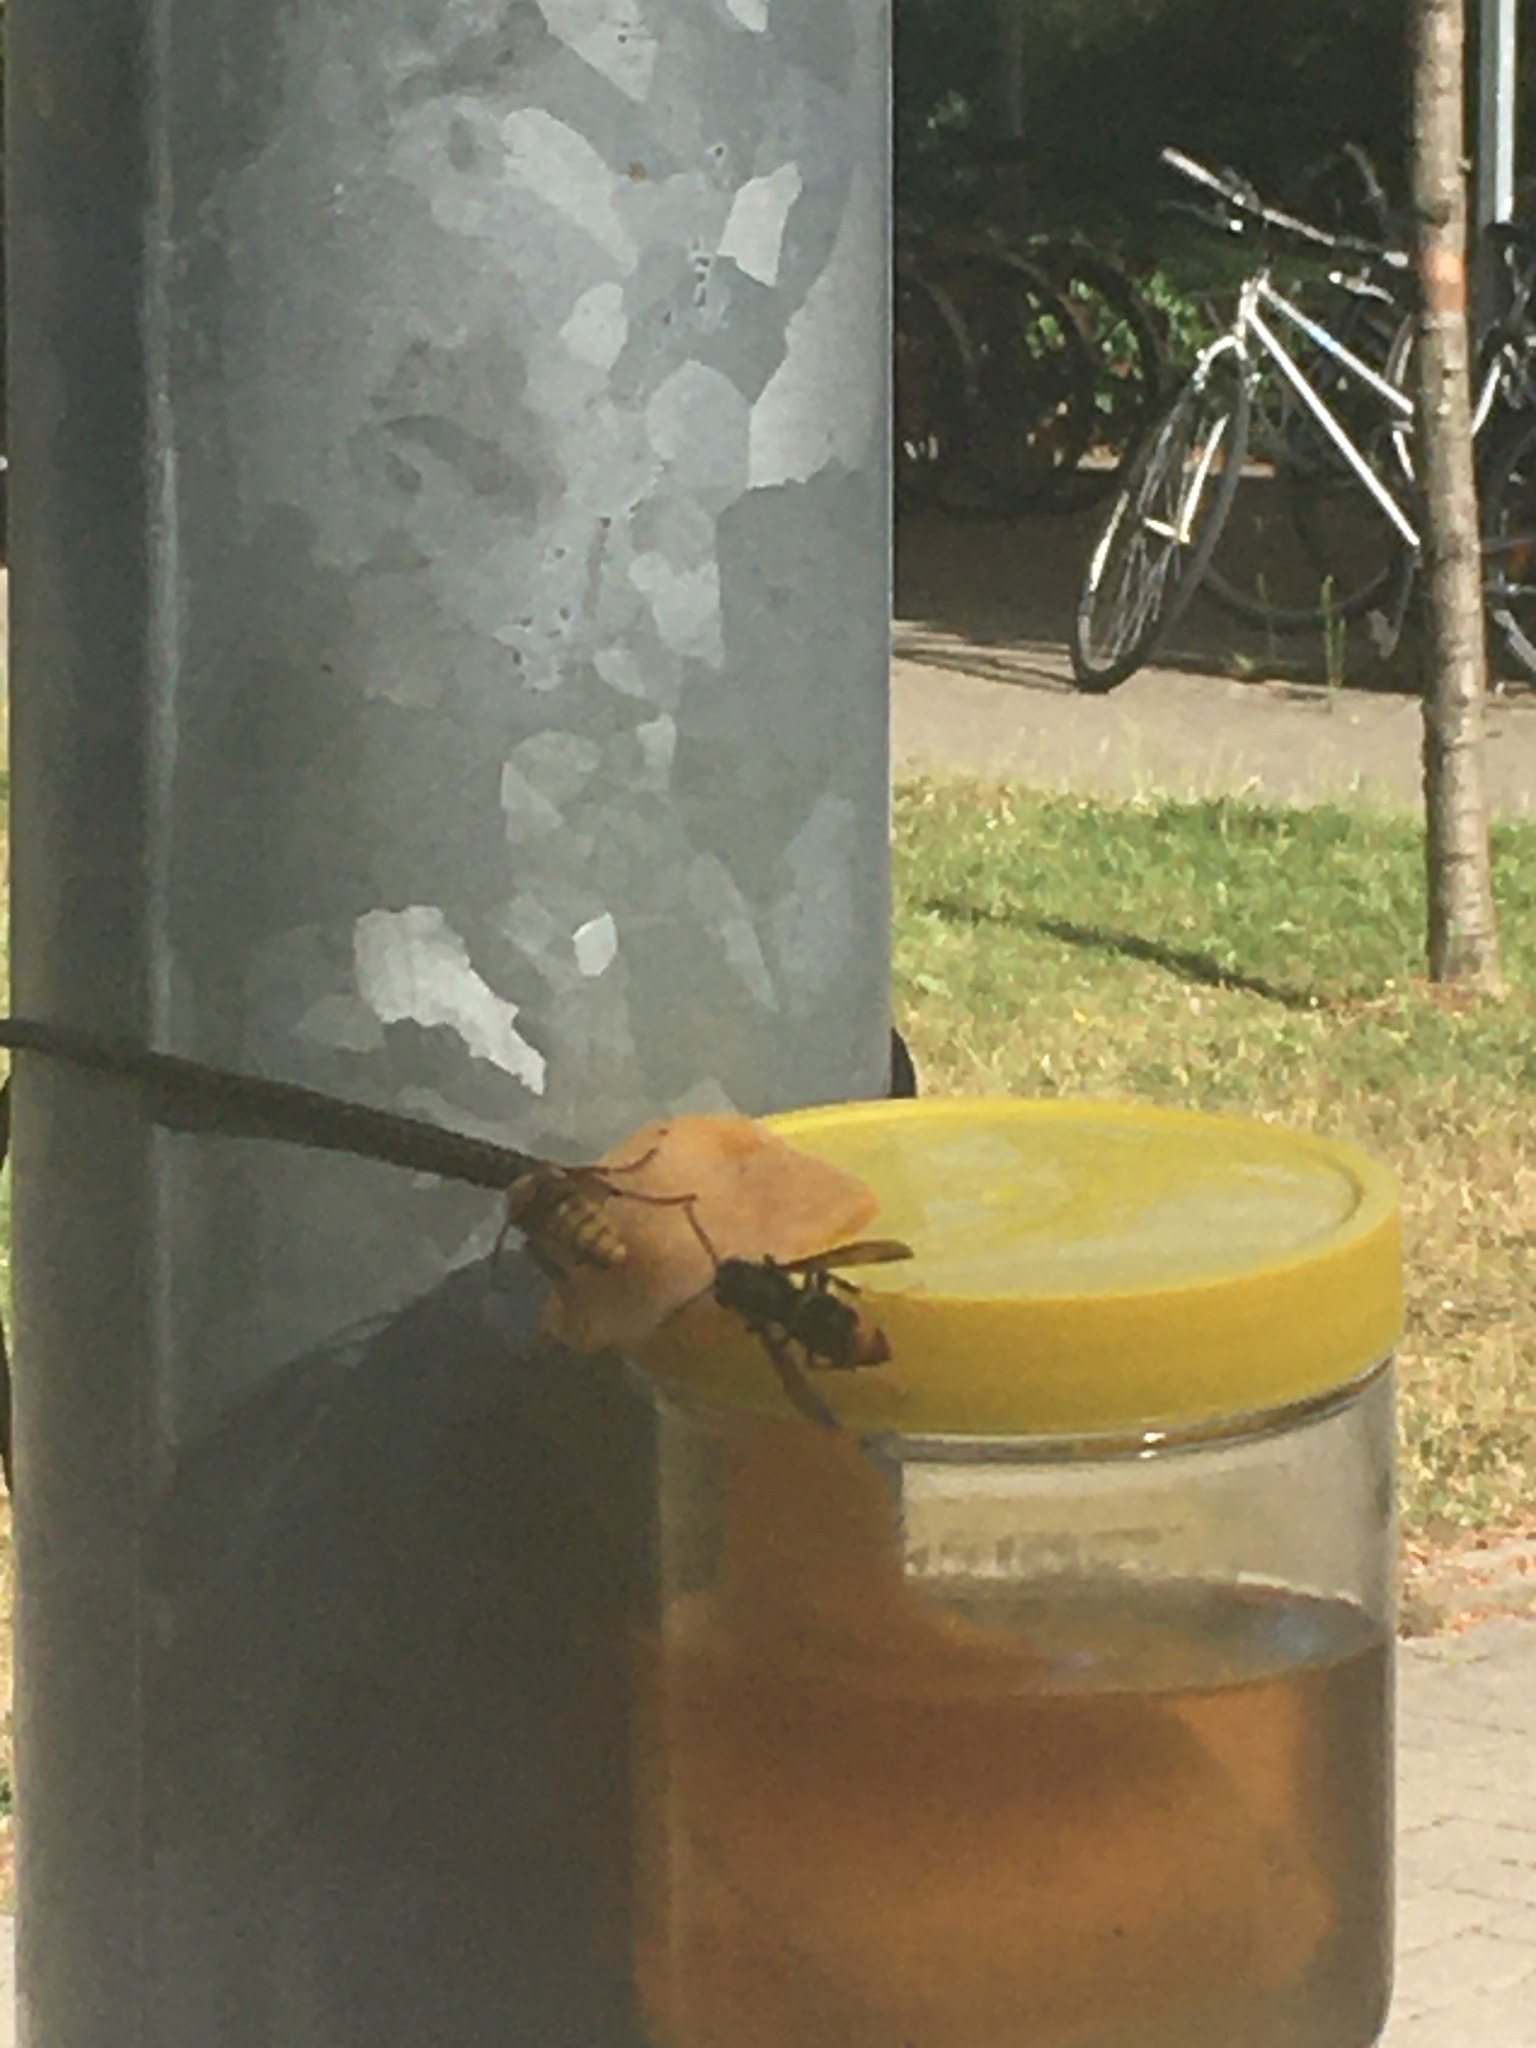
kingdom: Animalia
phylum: Arthropoda
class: Insecta
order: Hymenoptera
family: Vespidae
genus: Vespa
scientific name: Vespa crabro
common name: Hornet
